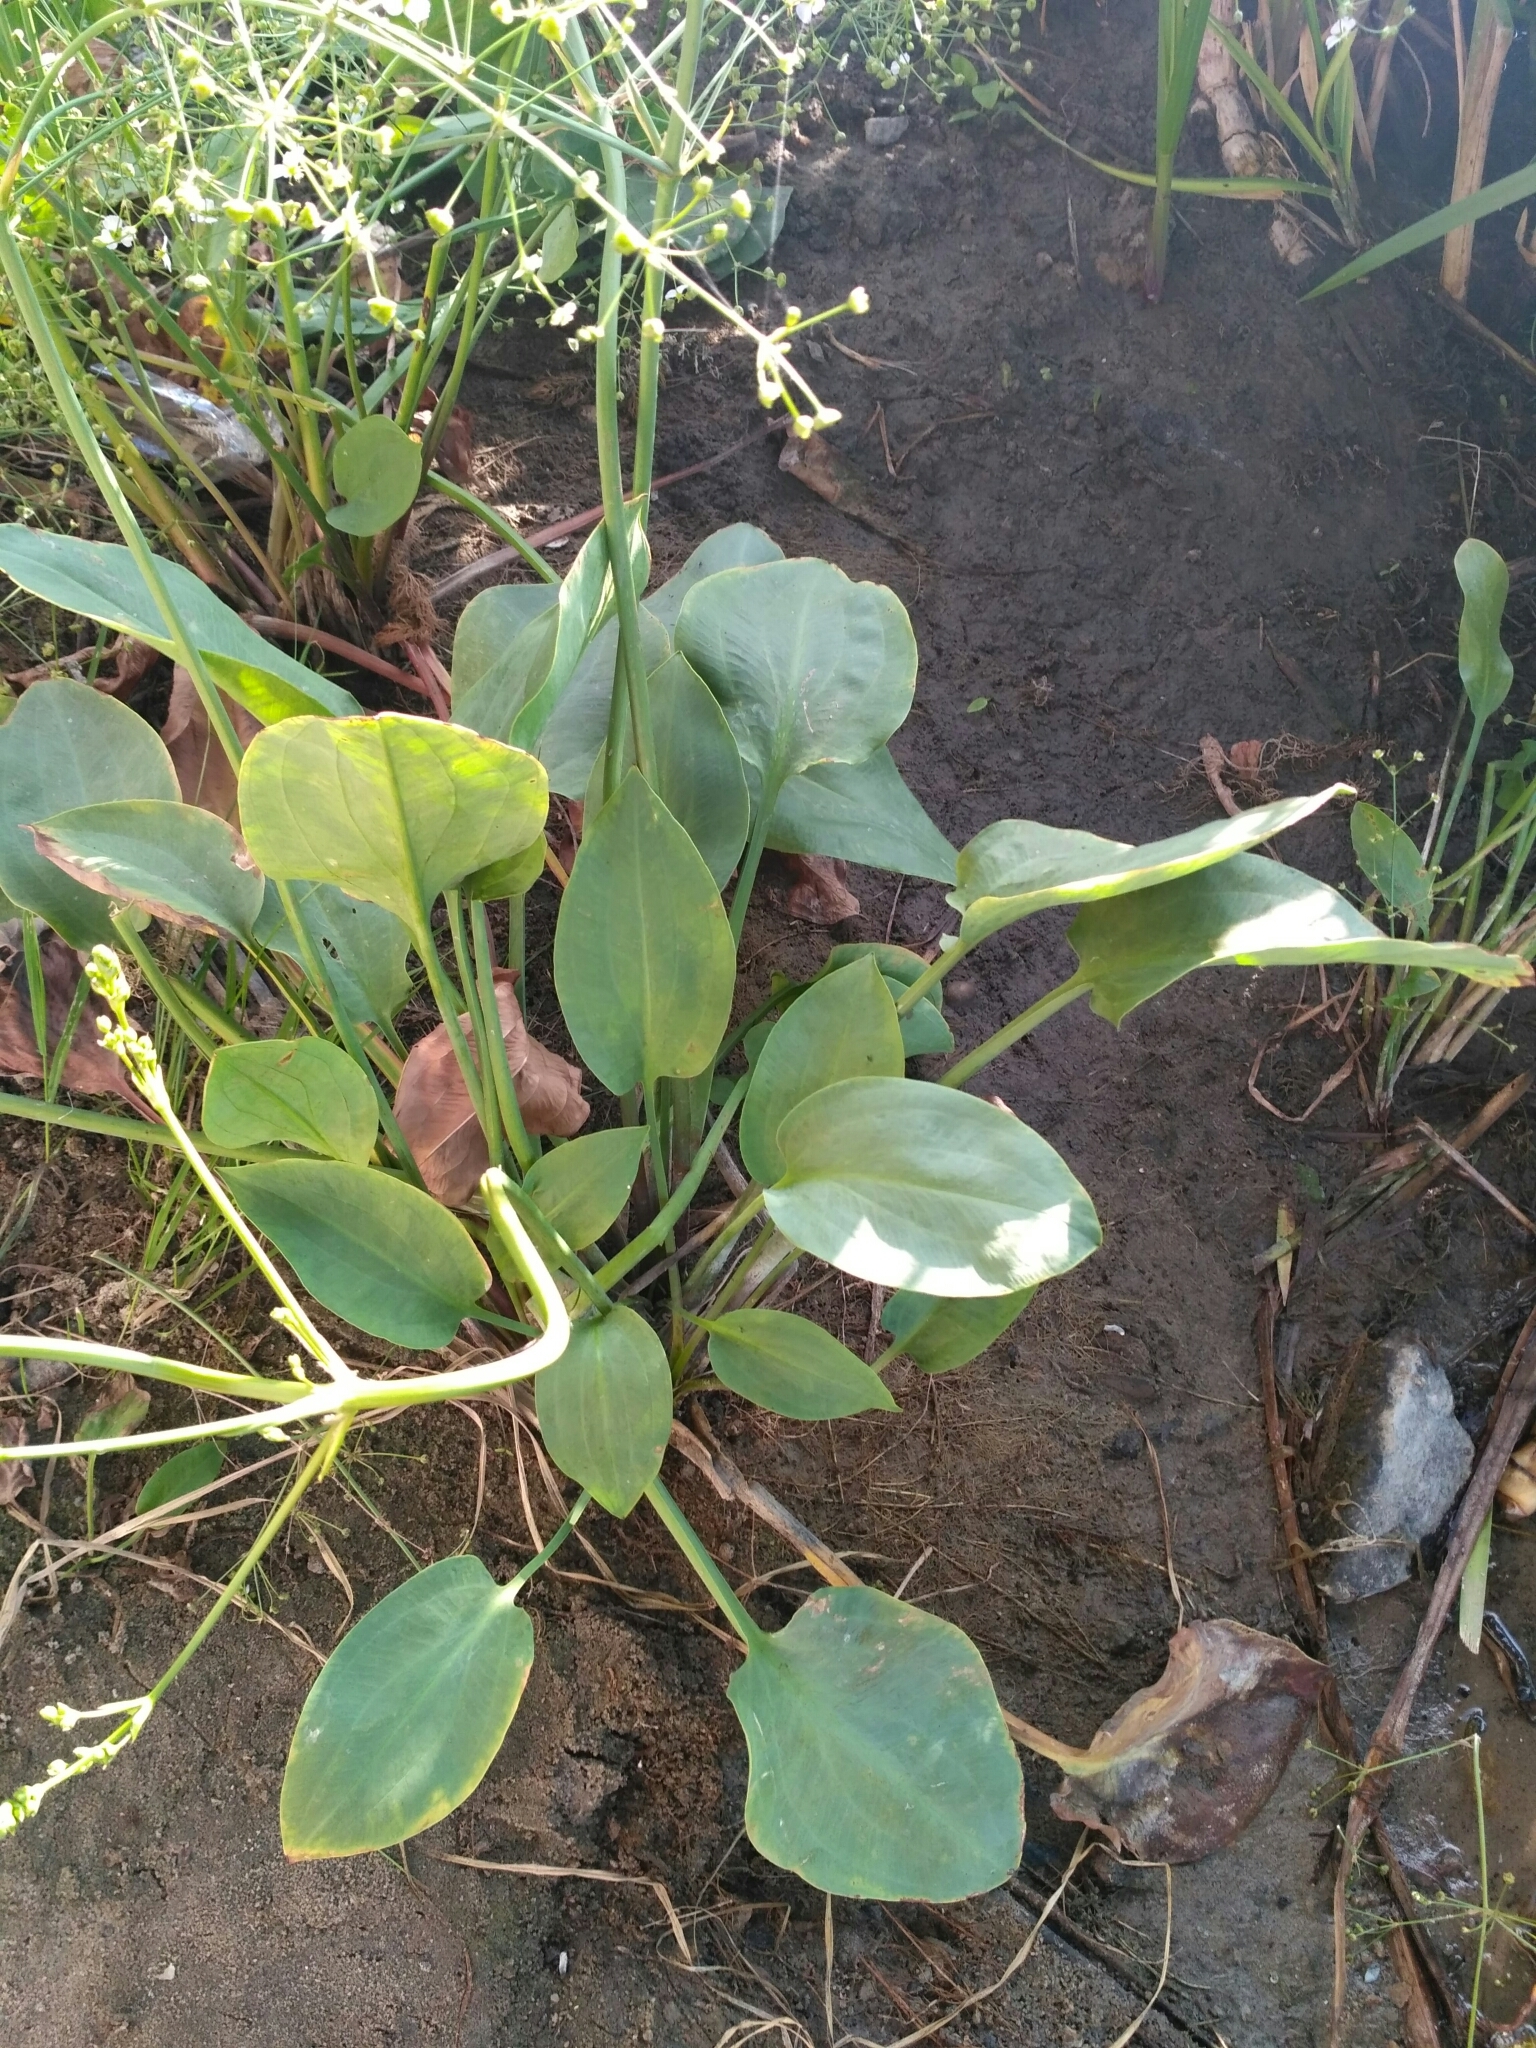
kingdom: Plantae
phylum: Tracheophyta
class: Liliopsida
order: Alismatales
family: Alismataceae
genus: Alisma
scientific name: Alisma plantago-aquatica
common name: Water-plantain
